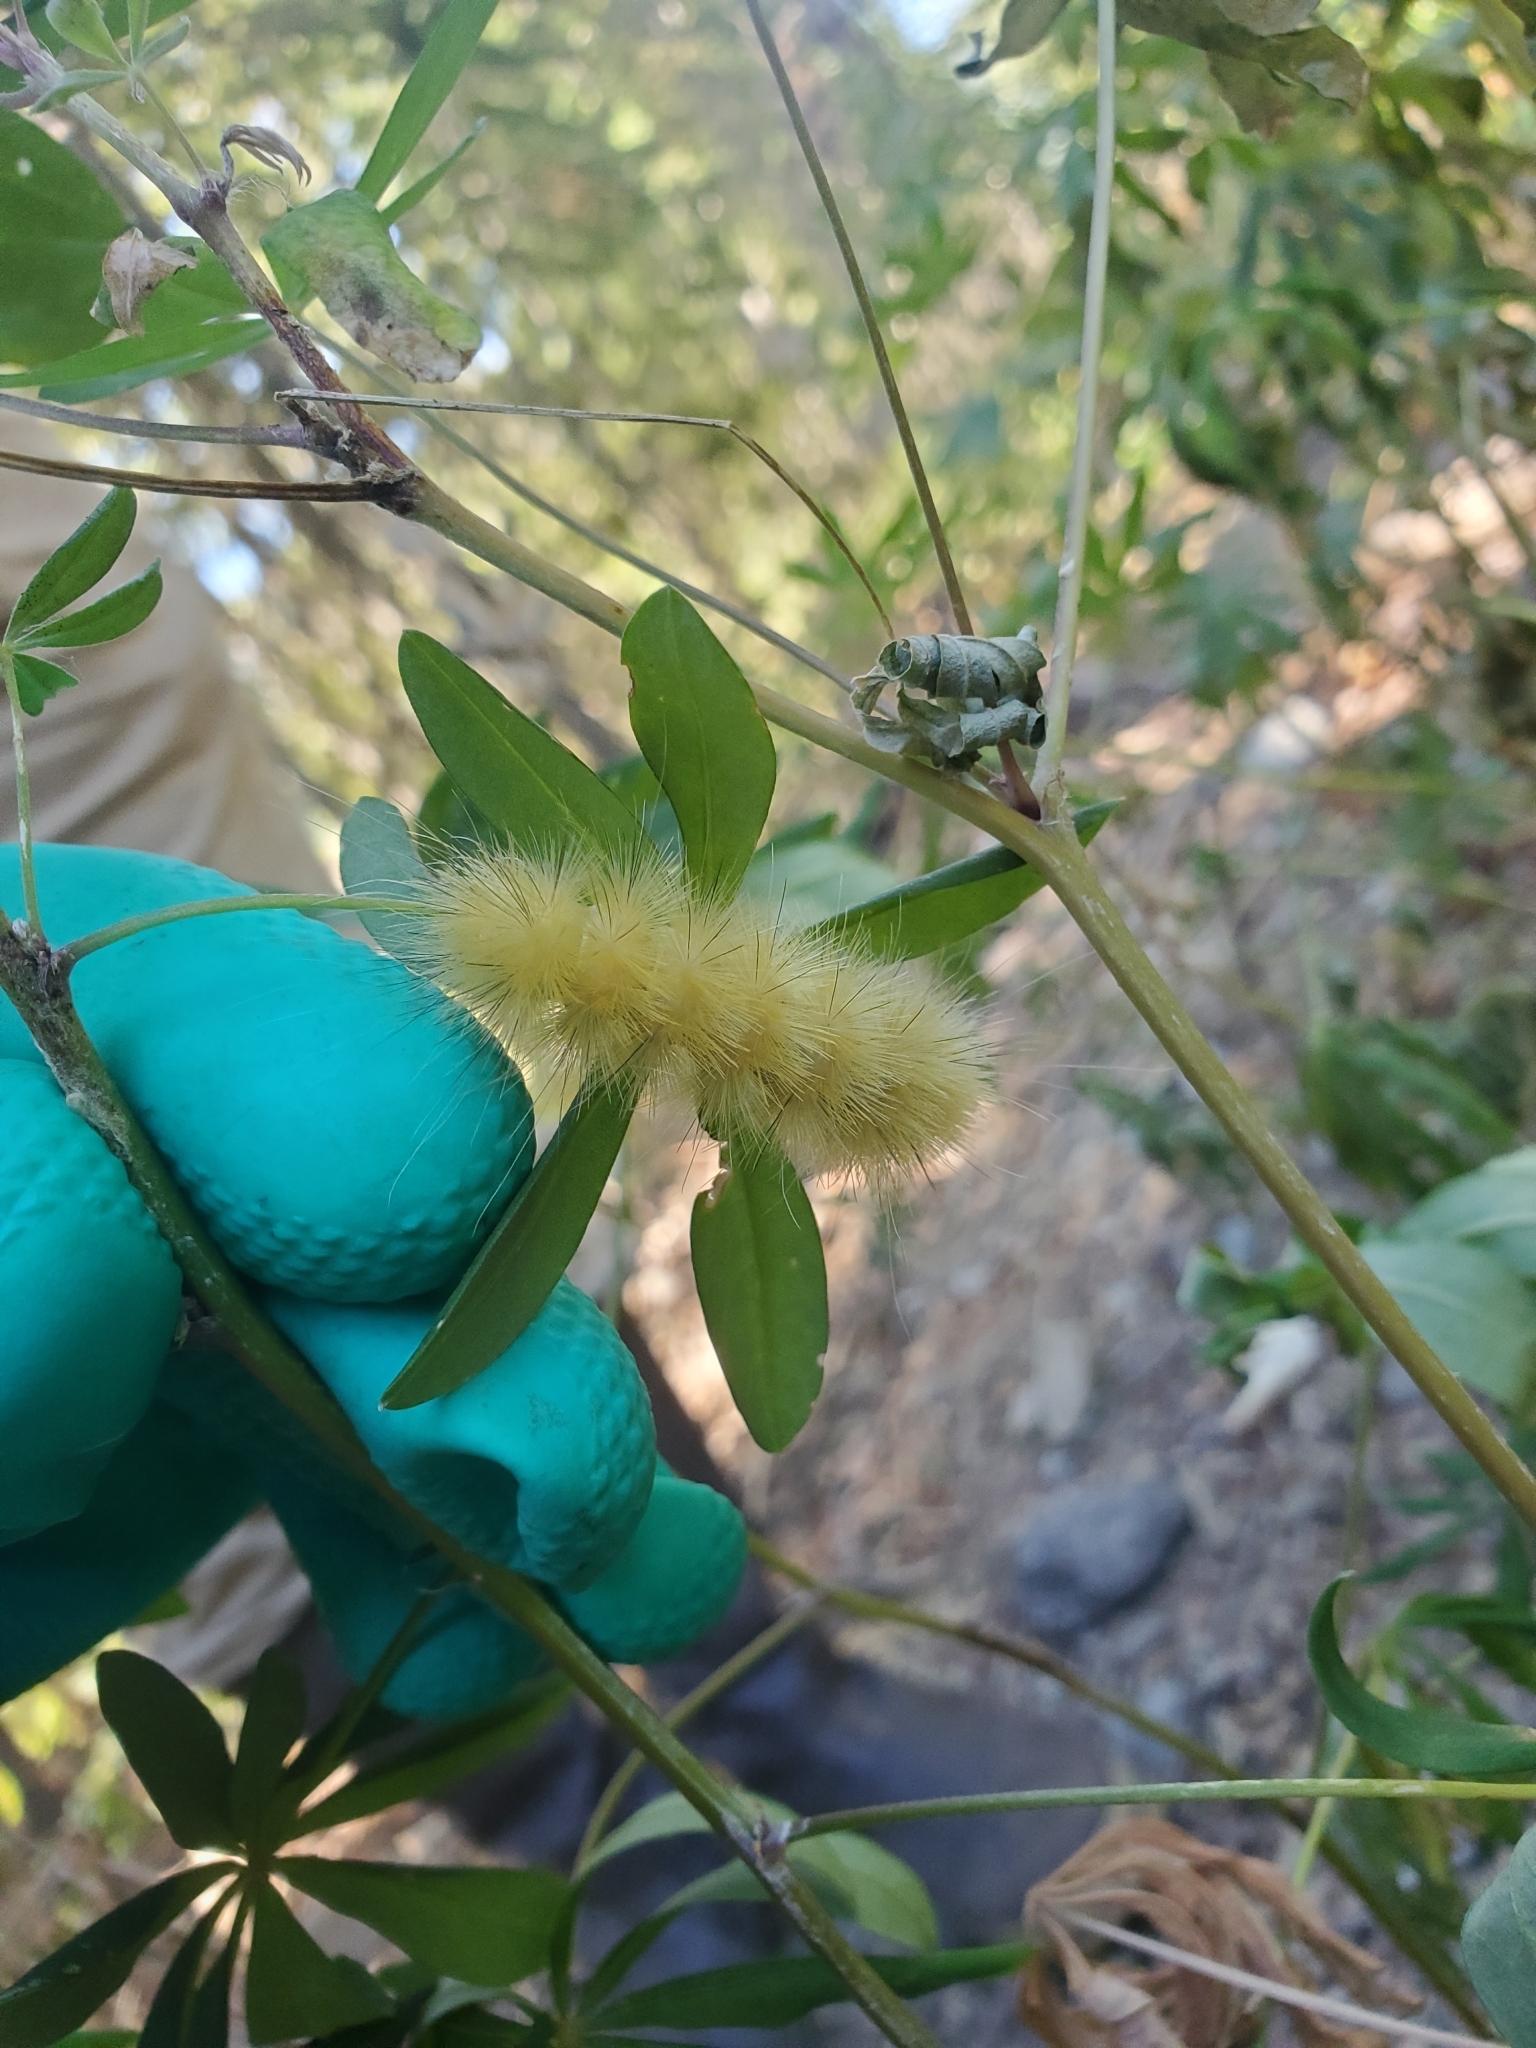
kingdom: Animalia
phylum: Arthropoda
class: Insecta
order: Lepidoptera
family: Erebidae
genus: Spilosoma
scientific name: Spilosoma virginica
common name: Virginia tiger moth
